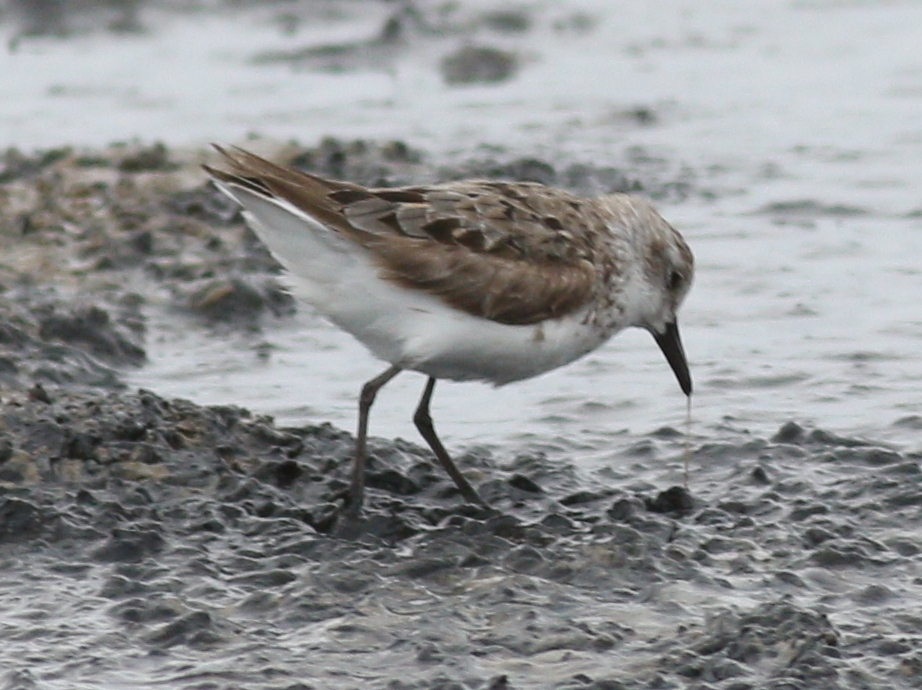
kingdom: Animalia
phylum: Chordata
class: Aves
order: Charadriiformes
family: Scolopacidae
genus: Calidris
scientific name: Calidris pusilla
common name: Semipalmated sandpiper
